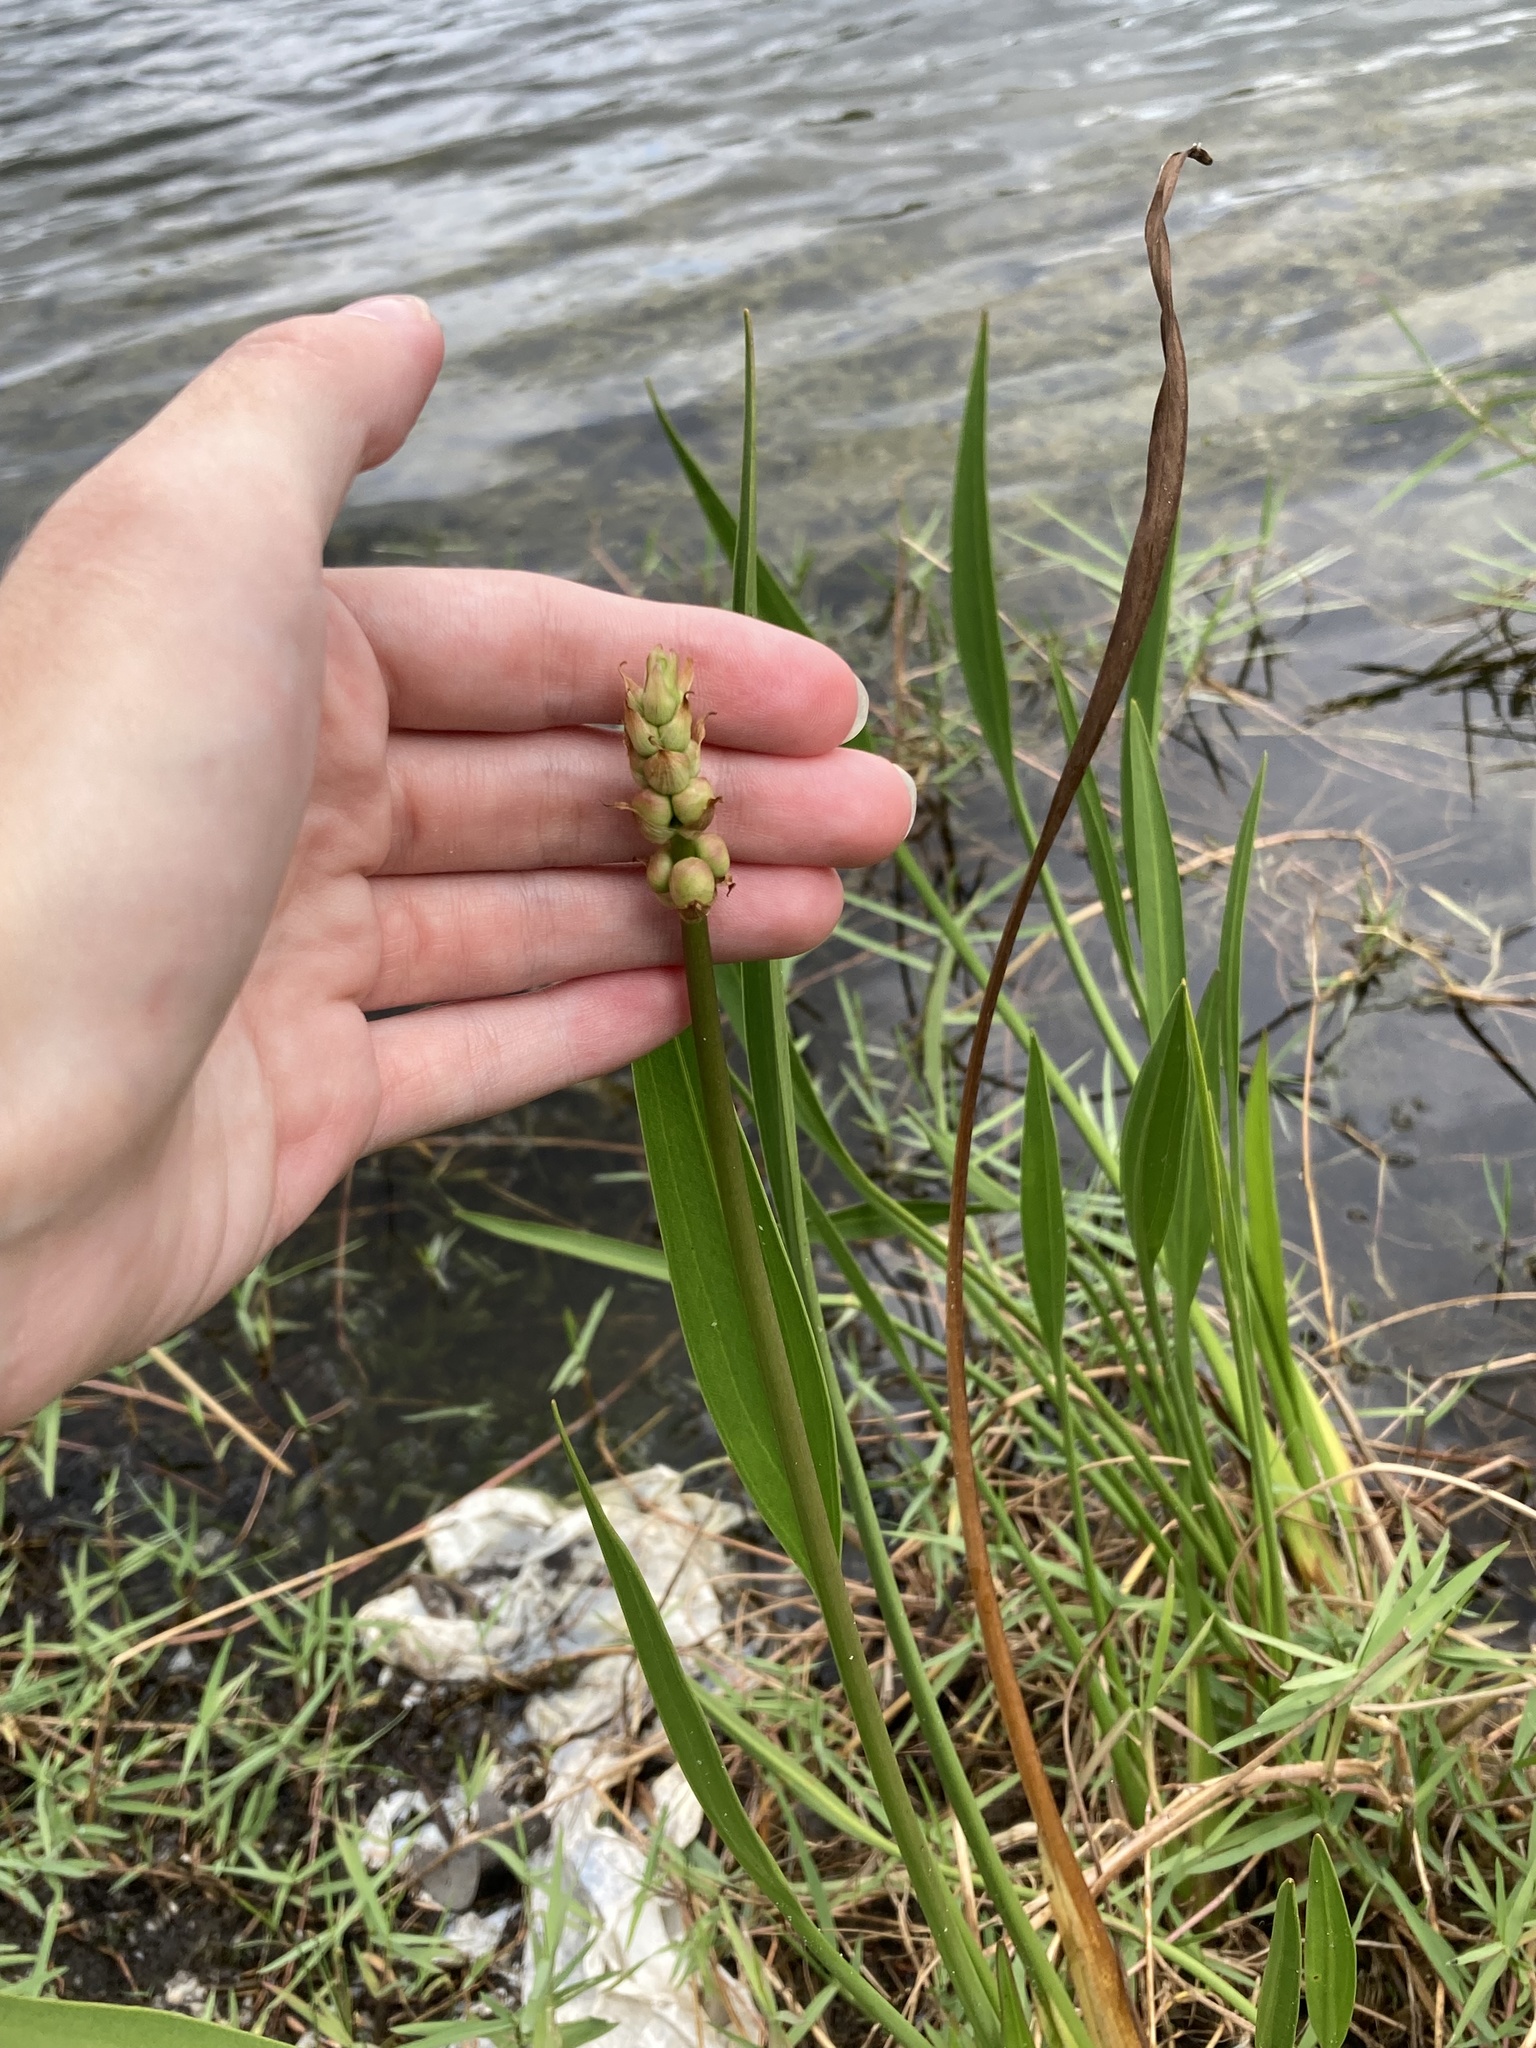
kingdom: Plantae
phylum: Tracheophyta
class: Liliopsida
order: Alismatales
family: Alismataceae
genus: Sagittaria
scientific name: Sagittaria lancifolia
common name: Lance-leaf arrowhead
